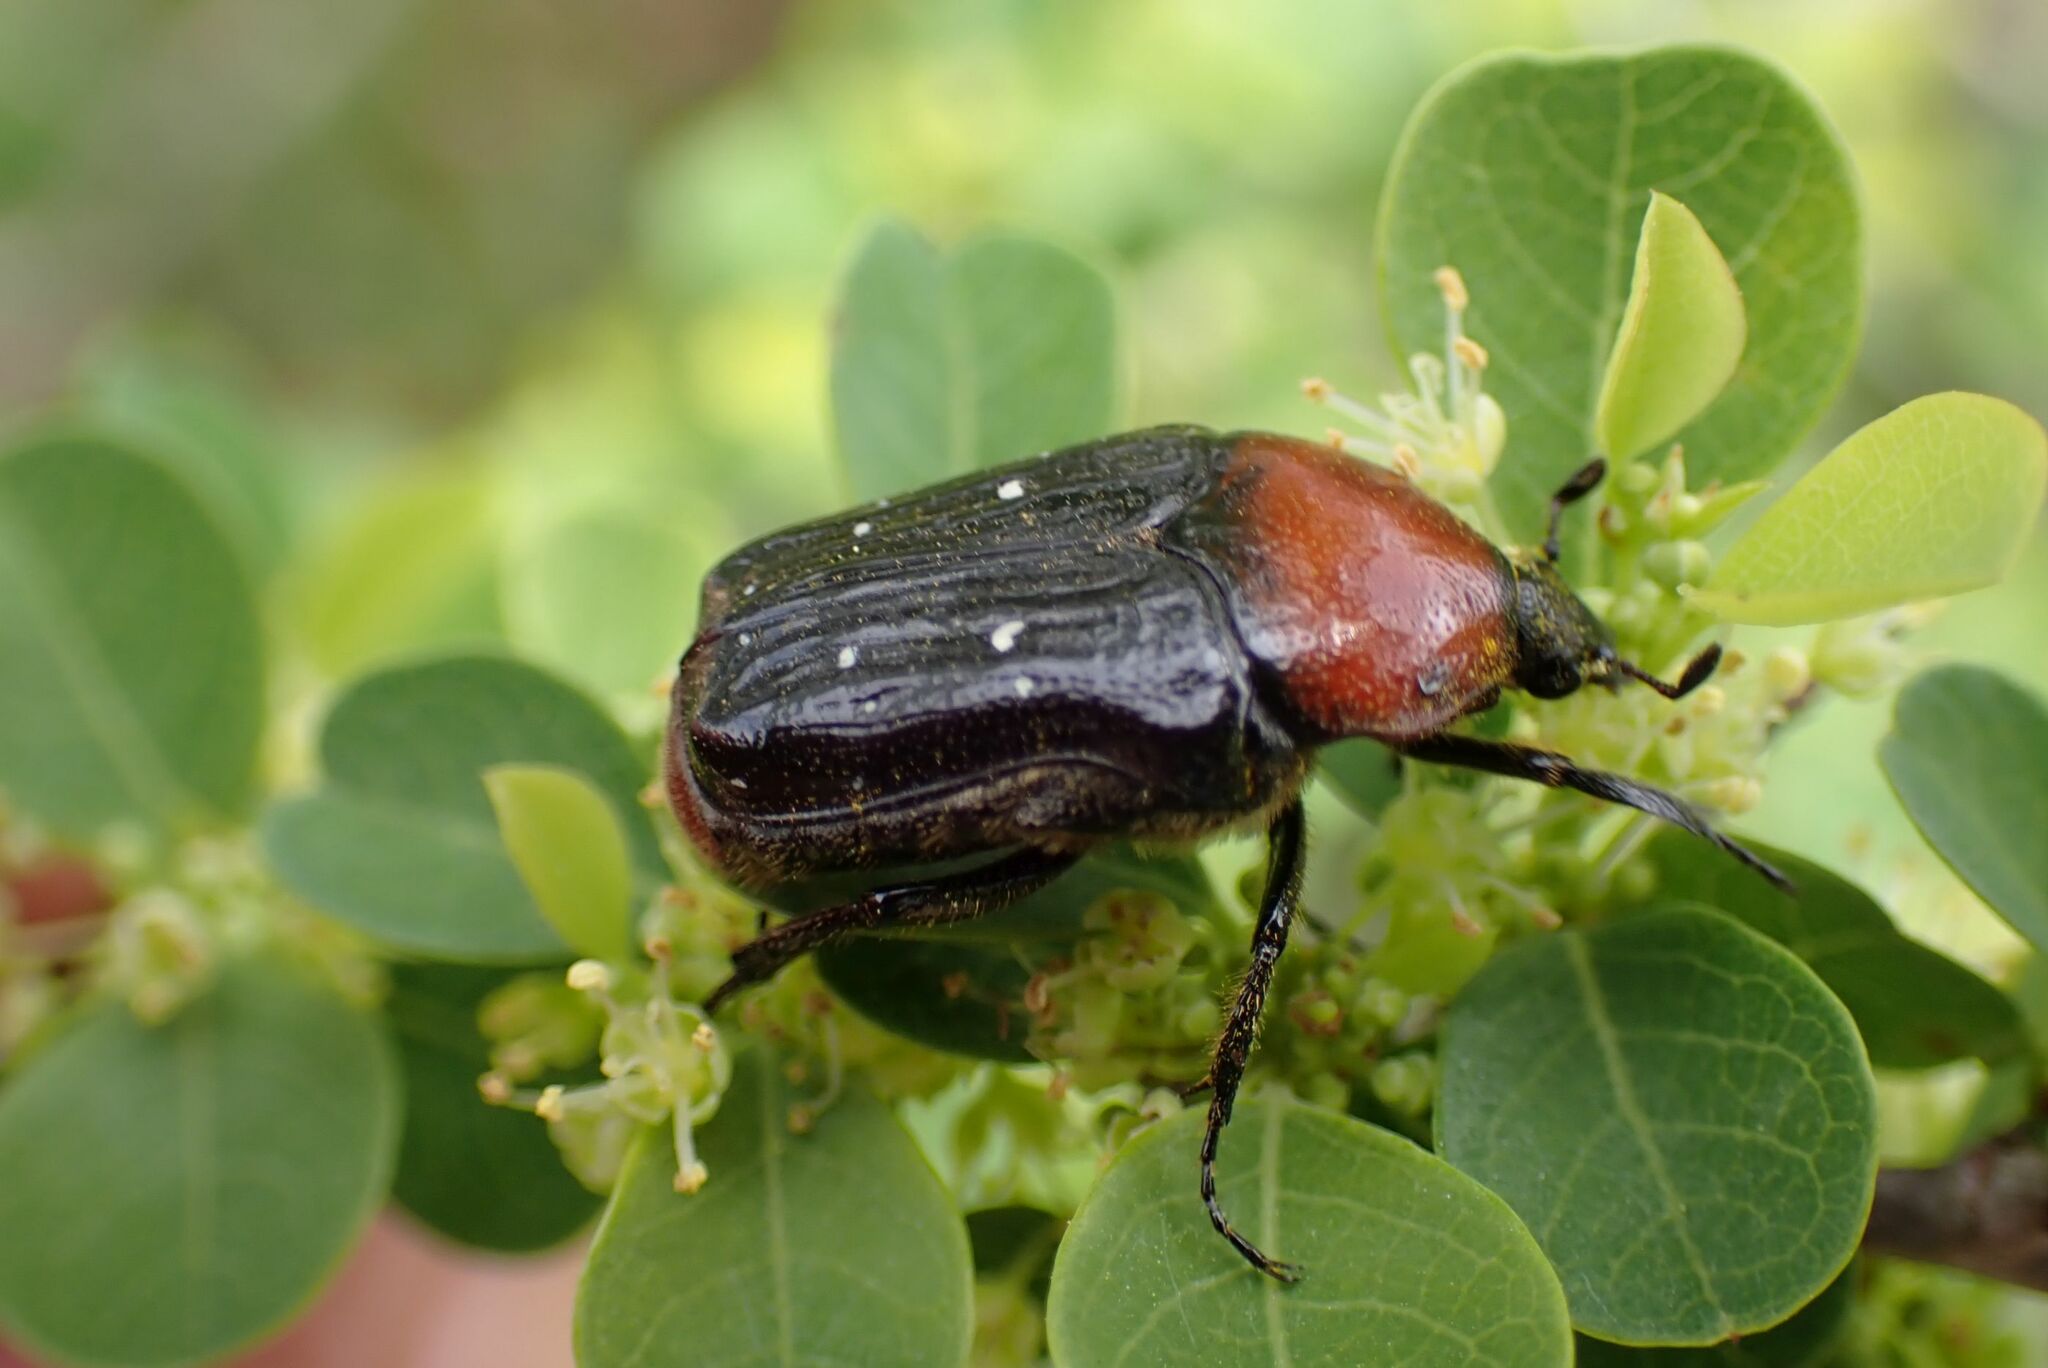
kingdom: Animalia
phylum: Arthropoda
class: Insecta
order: Coleoptera
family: Scarabaeidae
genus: Clinteroides
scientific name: Clinteroides permutans
